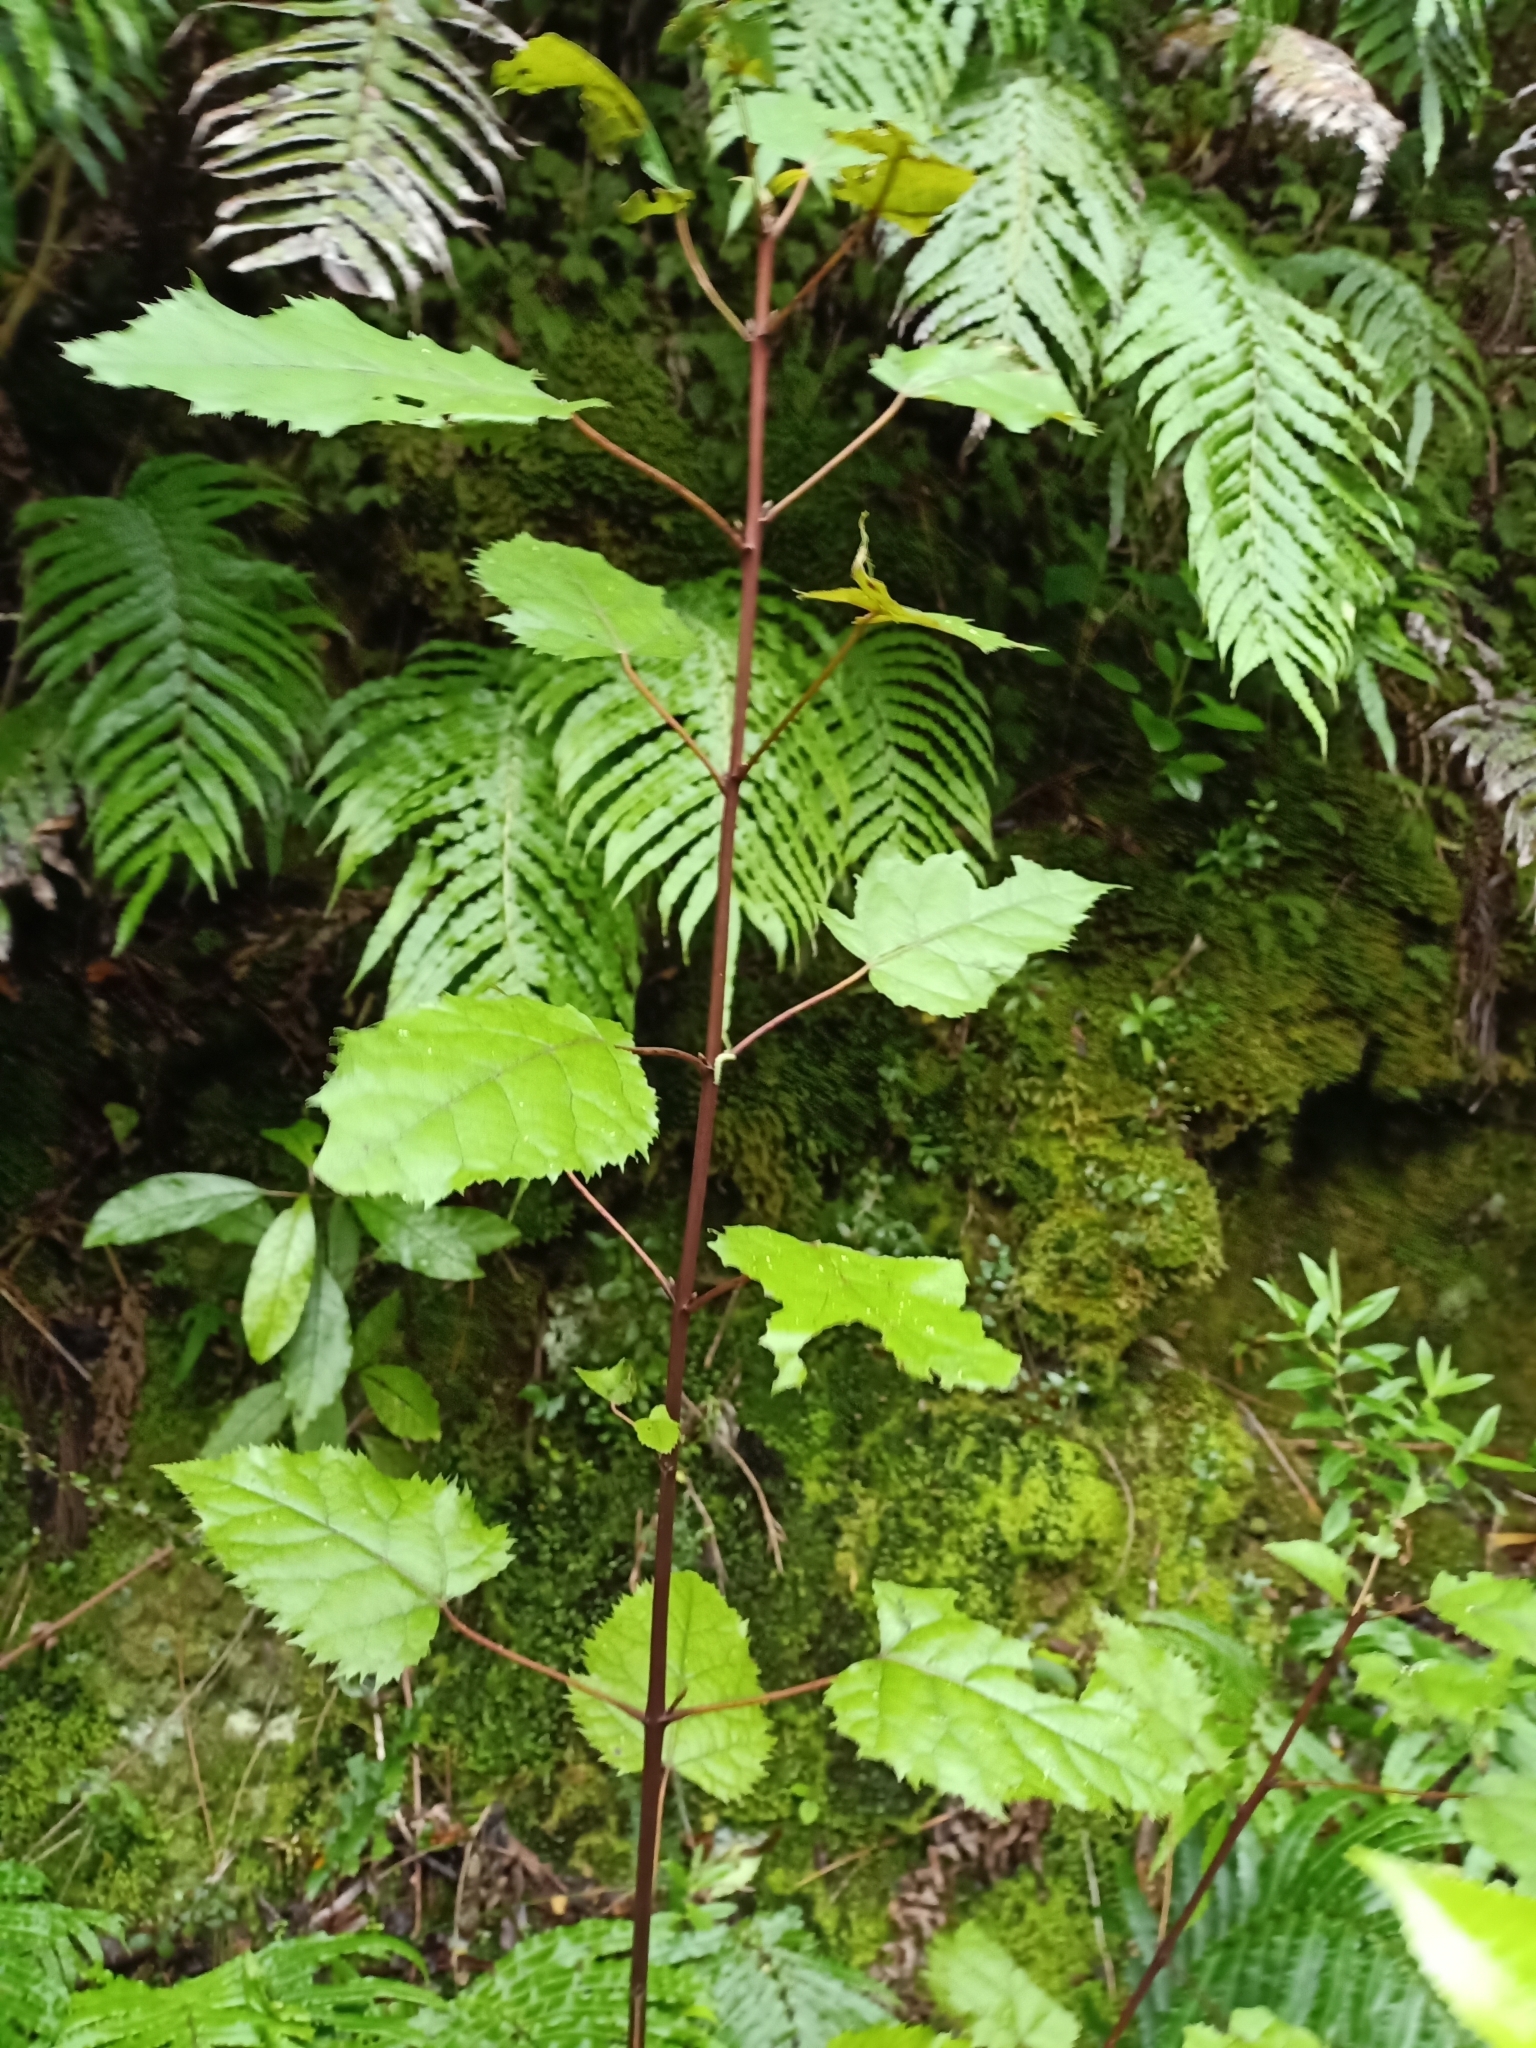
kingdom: Plantae
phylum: Tracheophyta
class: Magnoliopsida
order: Oxalidales
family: Elaeocarpaceae
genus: Aristotelia
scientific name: Aristotelia serrata
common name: New zealand wineberry
